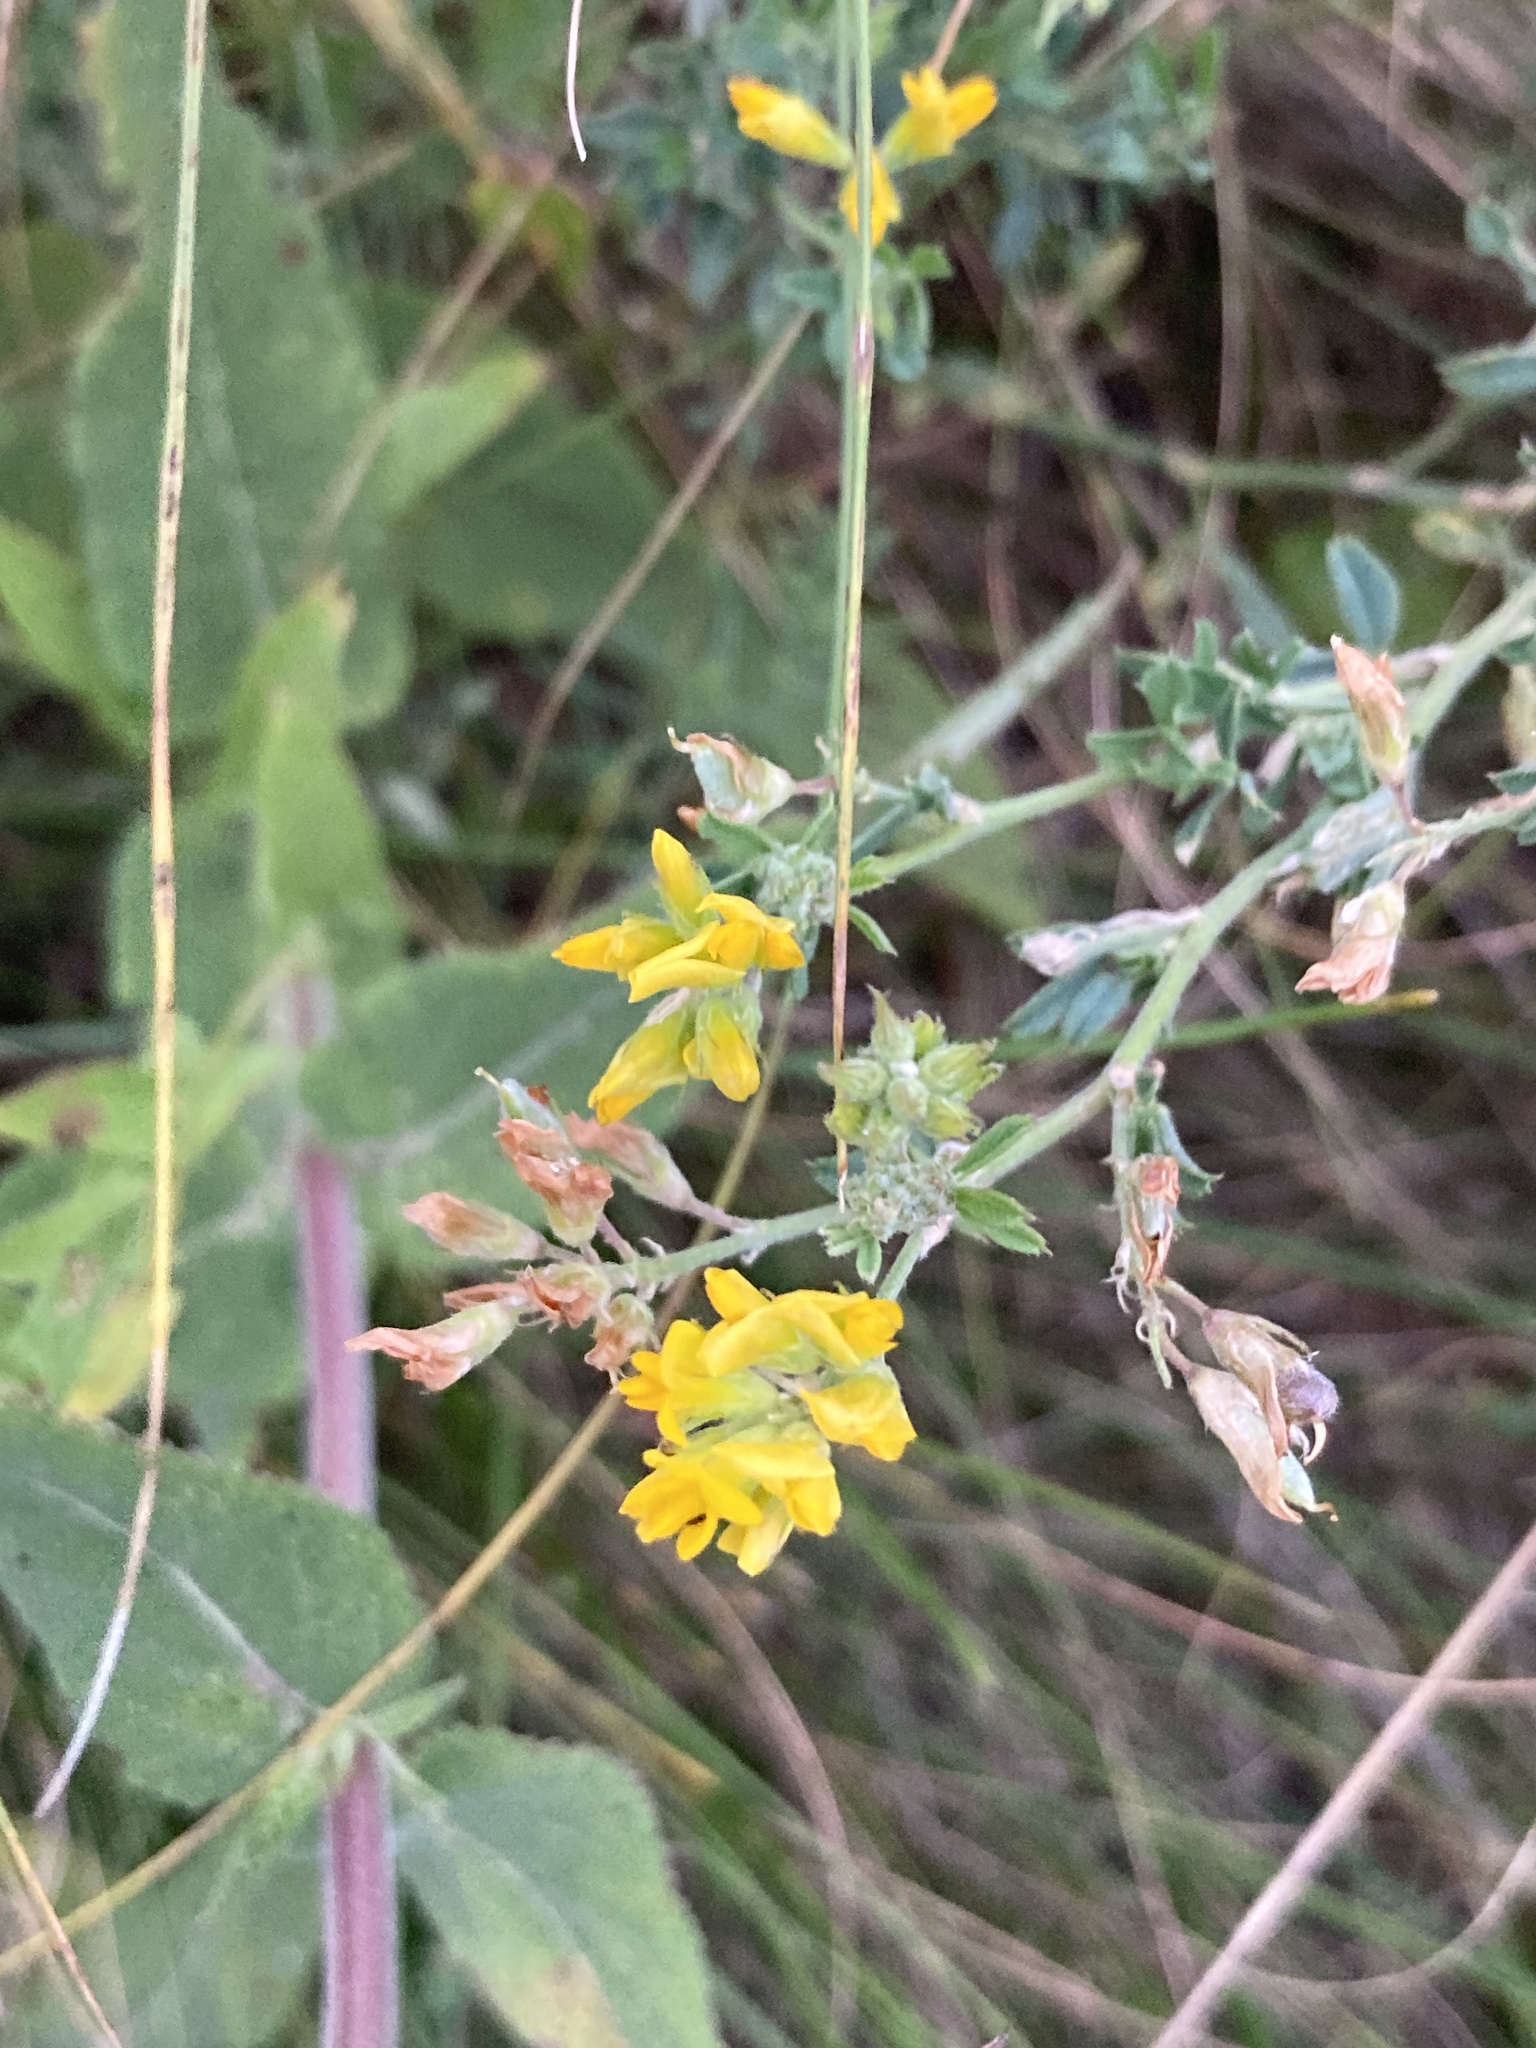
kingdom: Plantae
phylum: Tracheophyta
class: Magnoliopsida
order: Fabales
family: Fabaceae
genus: Medicago
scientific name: Medicago falcata
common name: Sickle medick
